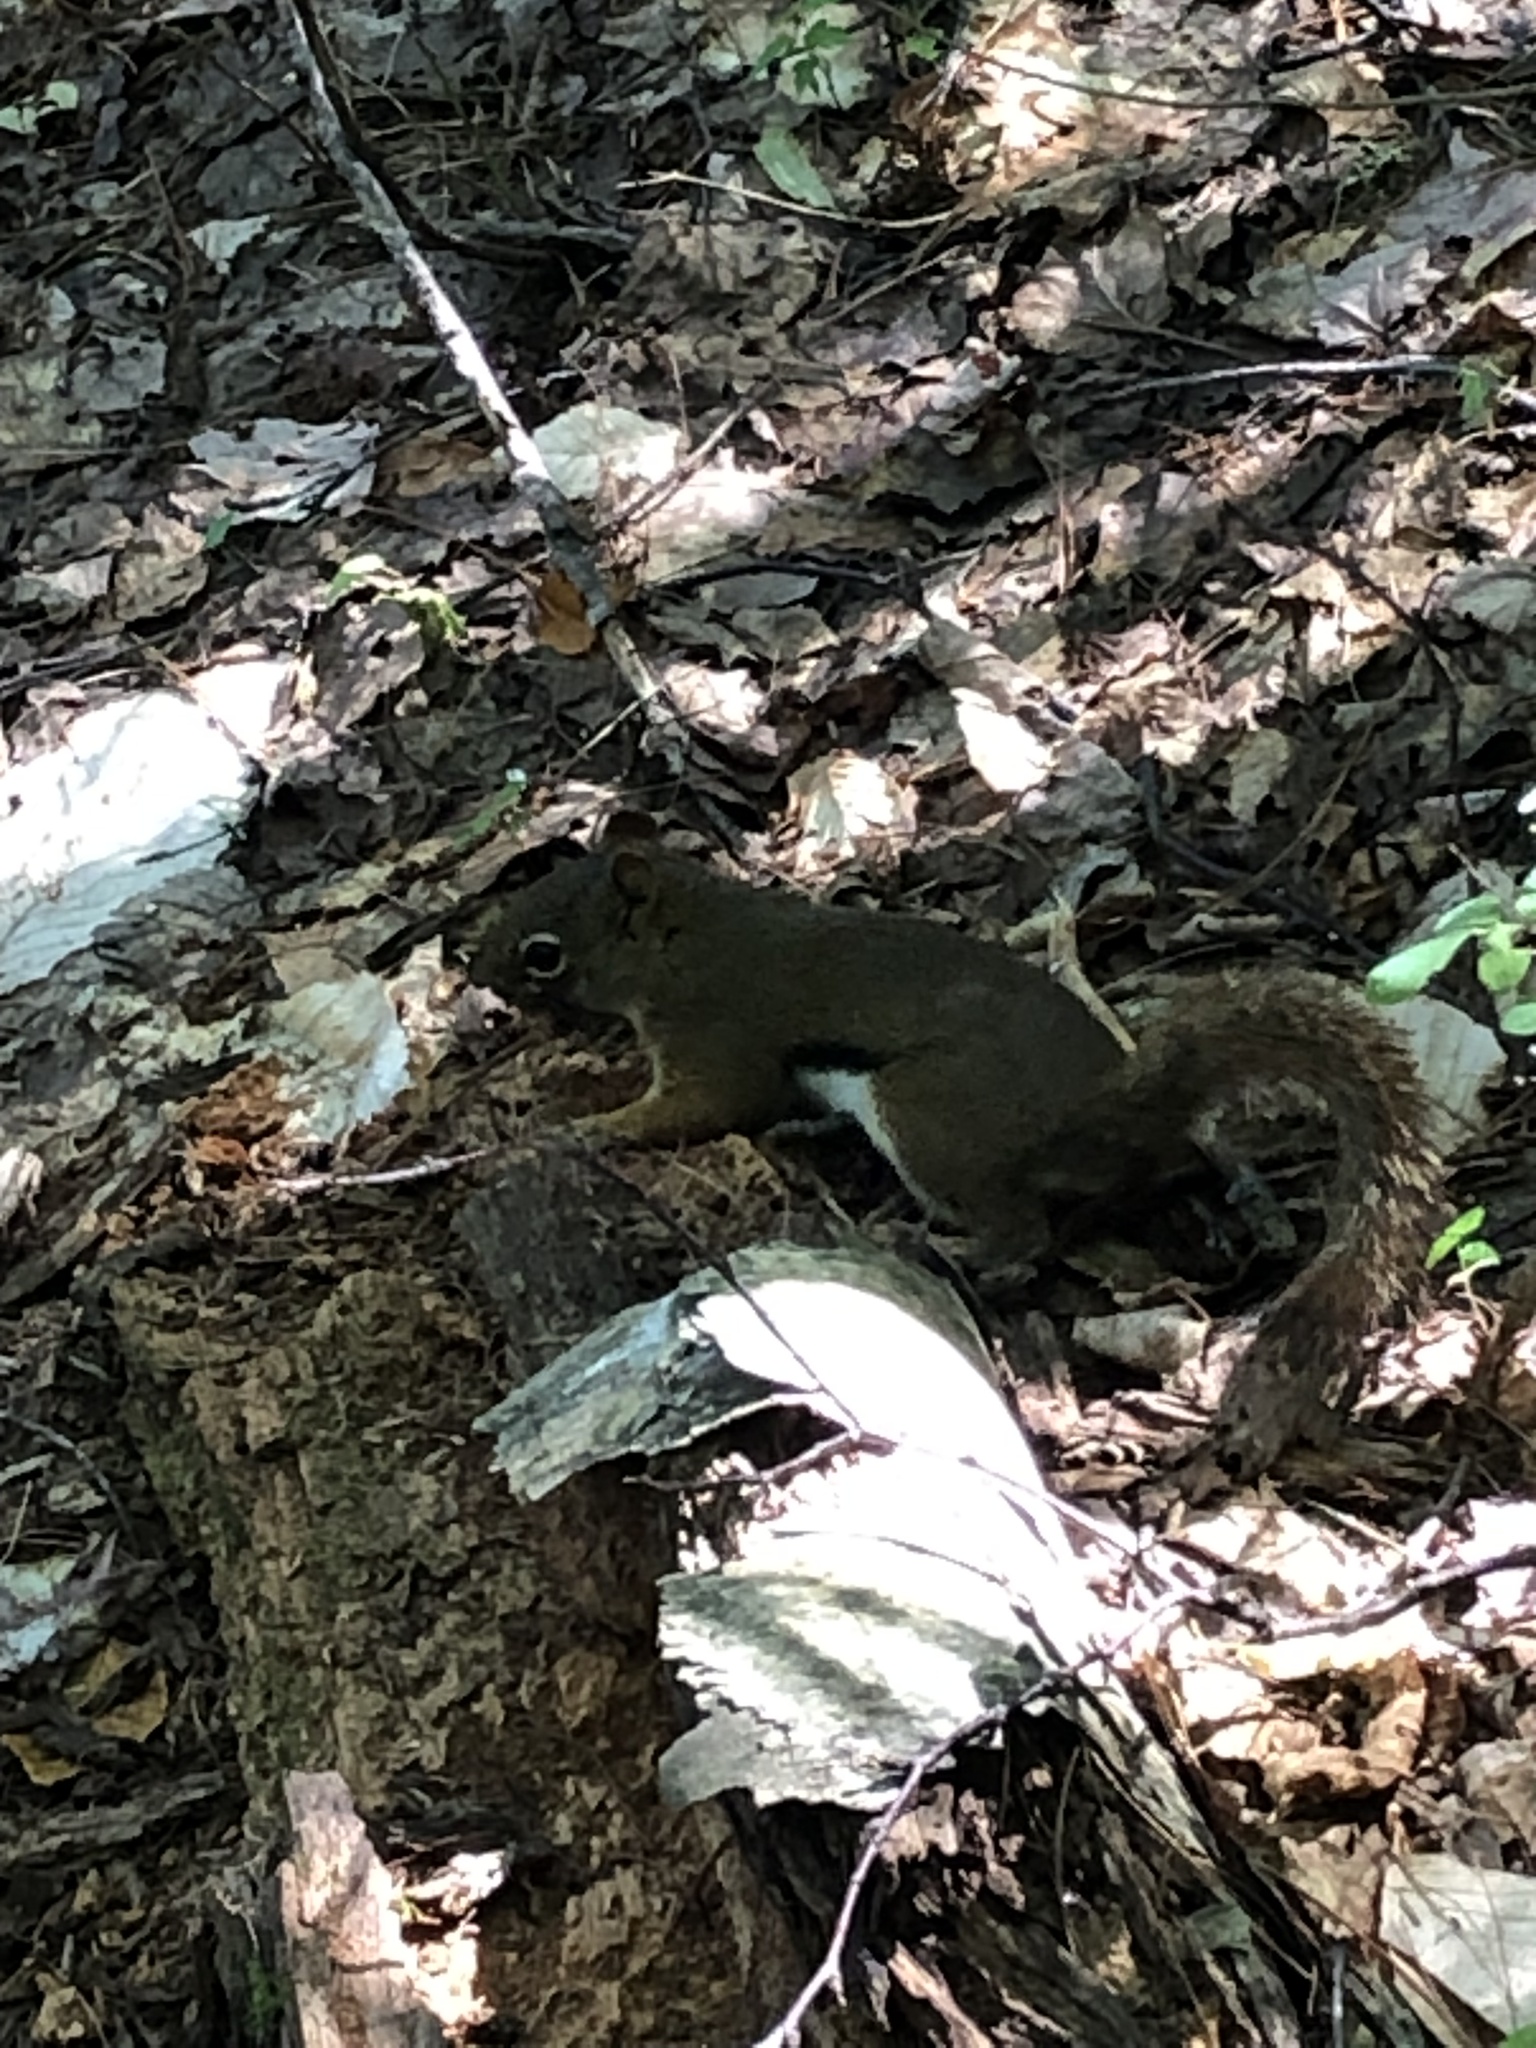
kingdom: Animalia
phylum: Chordata
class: Mammalia
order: Rodentia
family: Sciuridae
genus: Tamiasciurus
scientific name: Tamiasciurus hudsonicus
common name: Red squirrel
